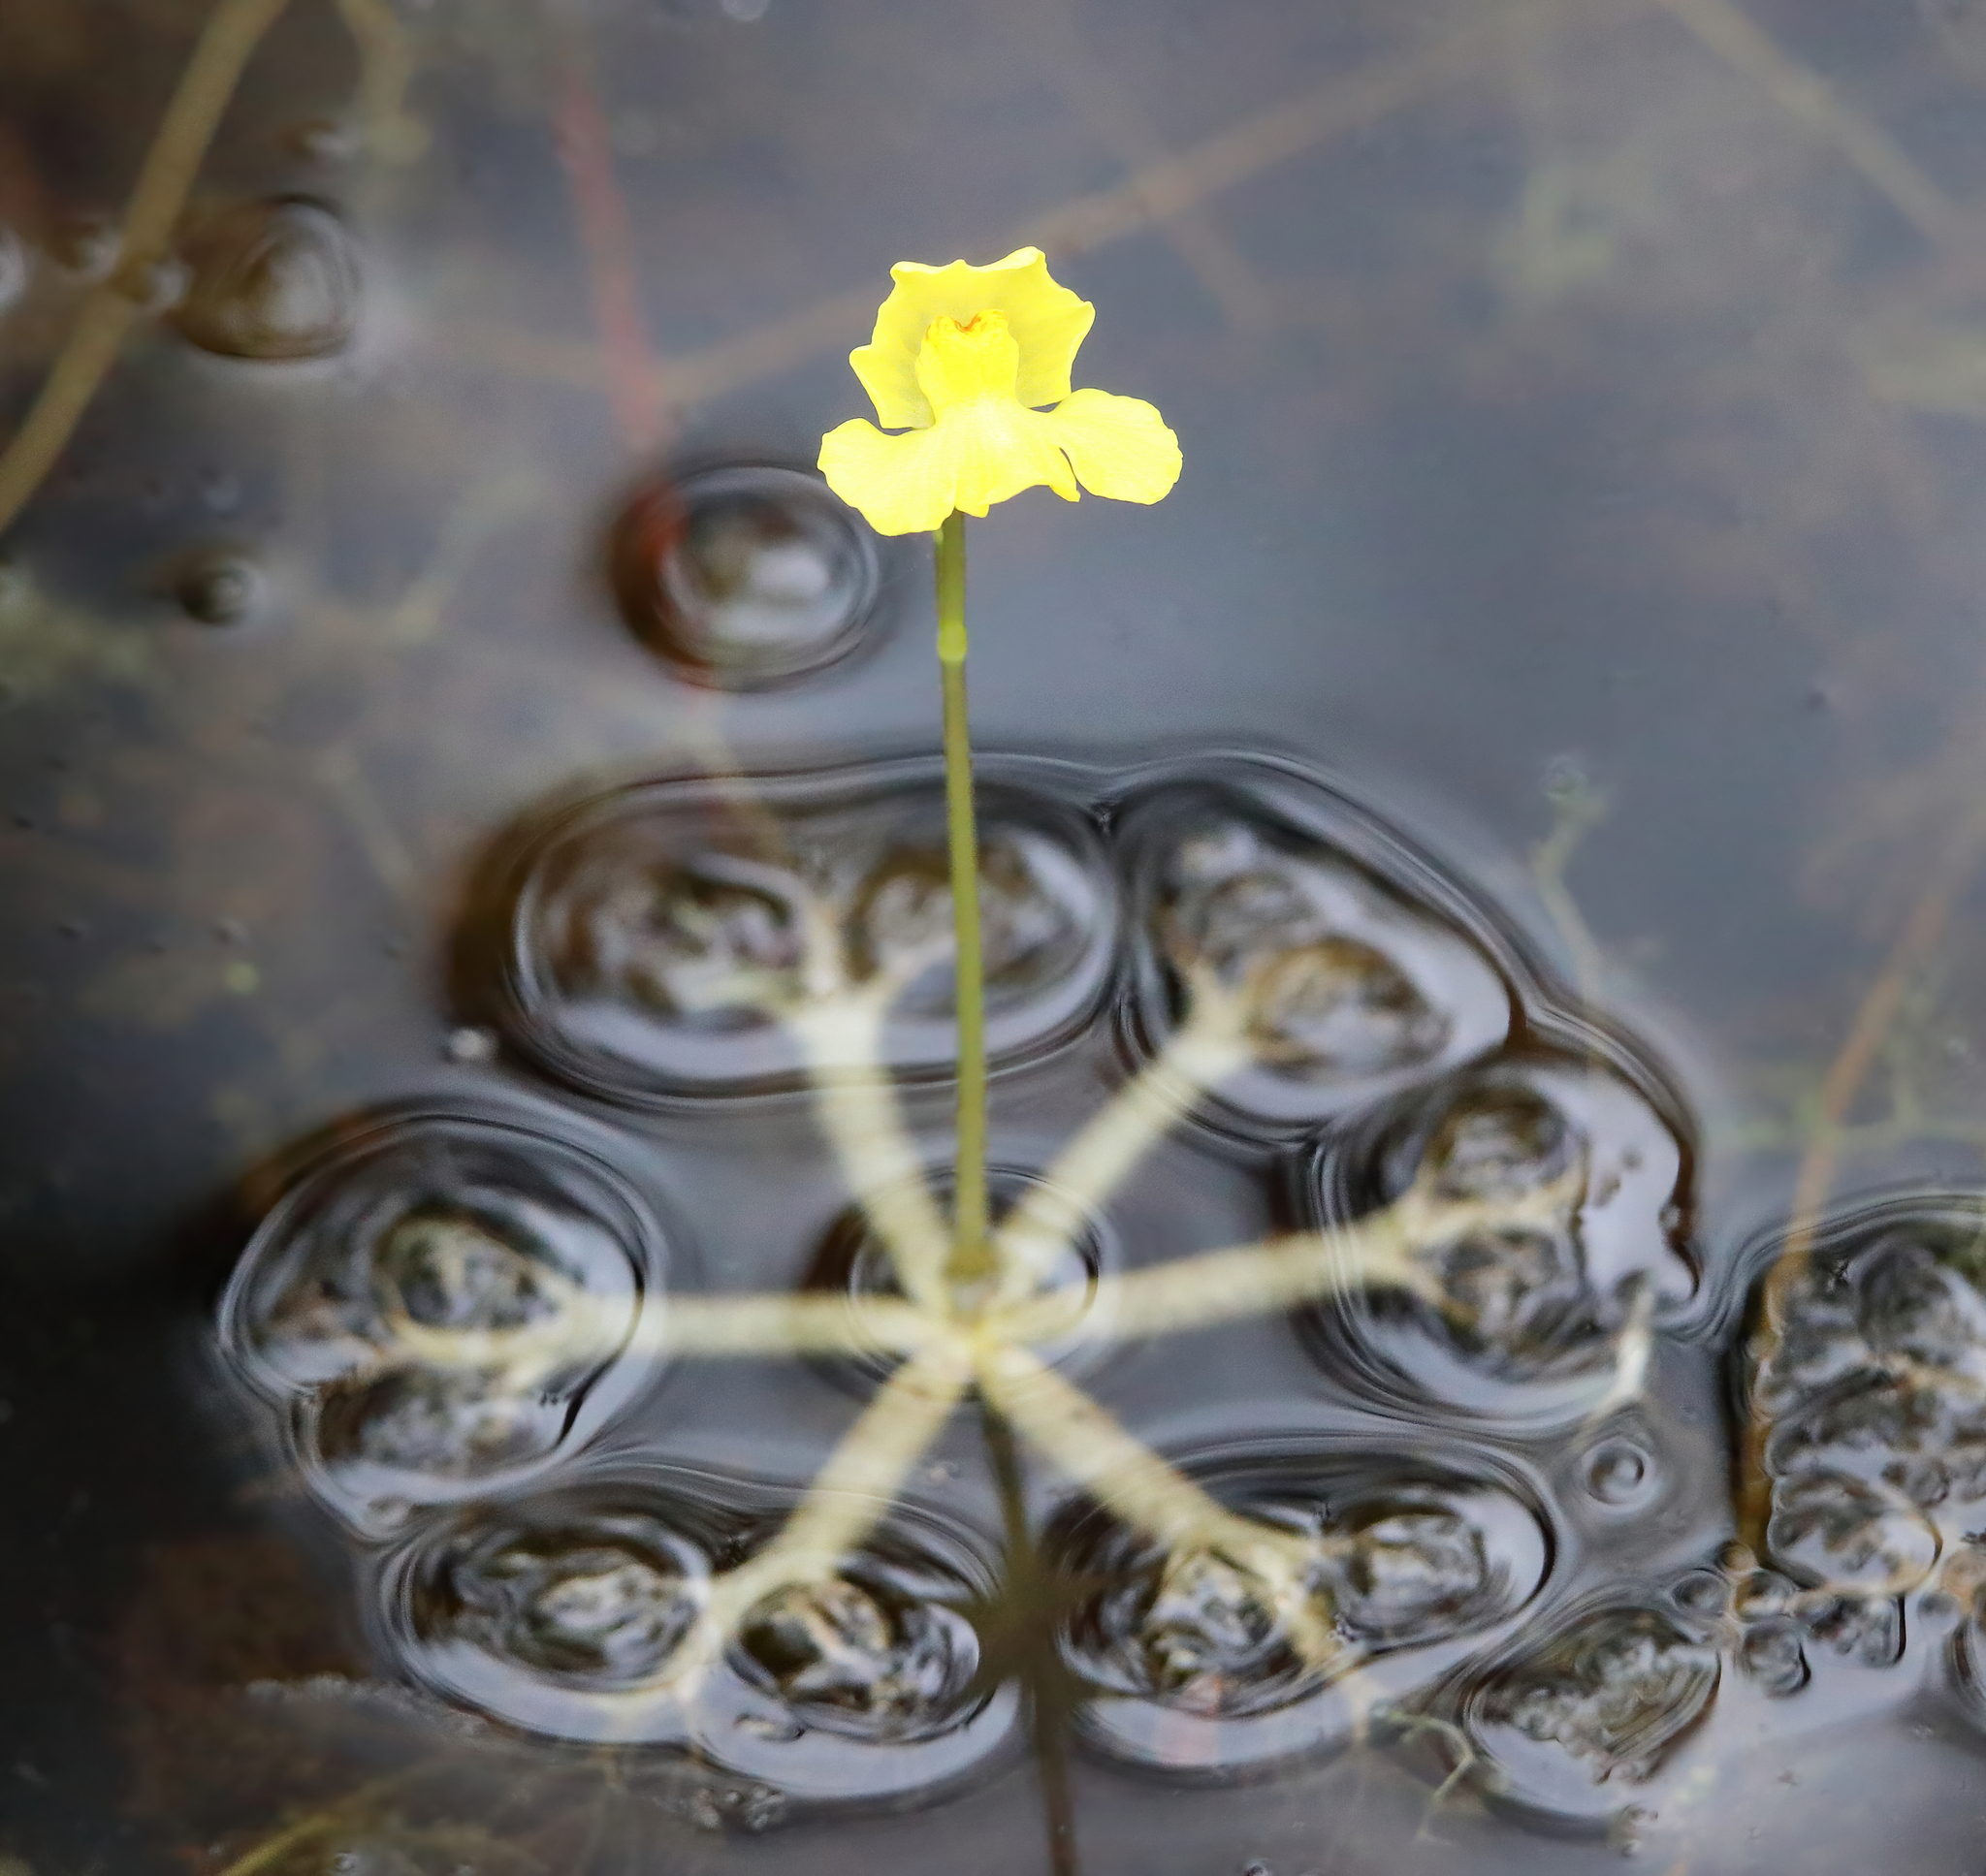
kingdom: Plantae
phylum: Tracheophyta
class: Magnoliopsida
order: Lamiales
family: Lentibulariaceae
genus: Utricularia
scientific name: Utricularia radiata
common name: Floating bladderwort
